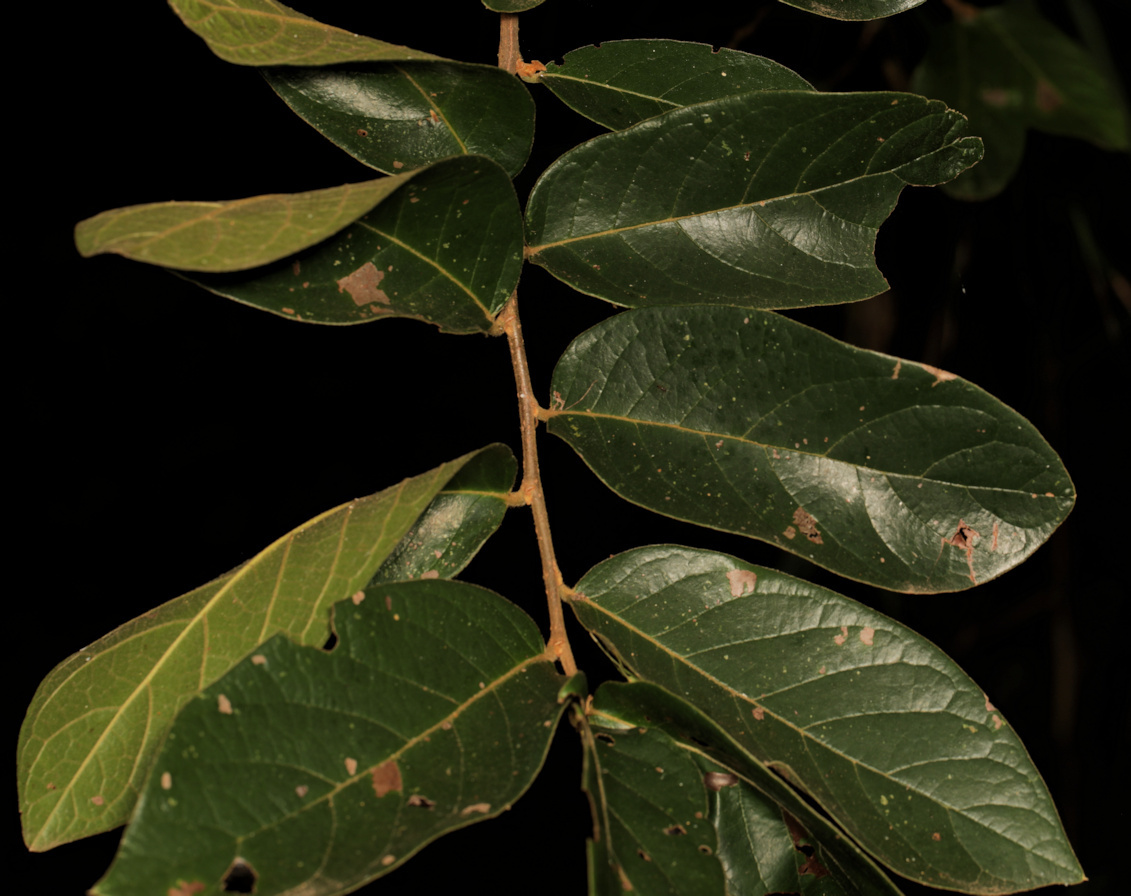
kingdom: Plantae
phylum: Tracheophyta
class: Magnoliopsida
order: Malpighiales
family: Phyllanthaceae
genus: Antidesma
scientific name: Antidesma venosum
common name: Tassel-berry
